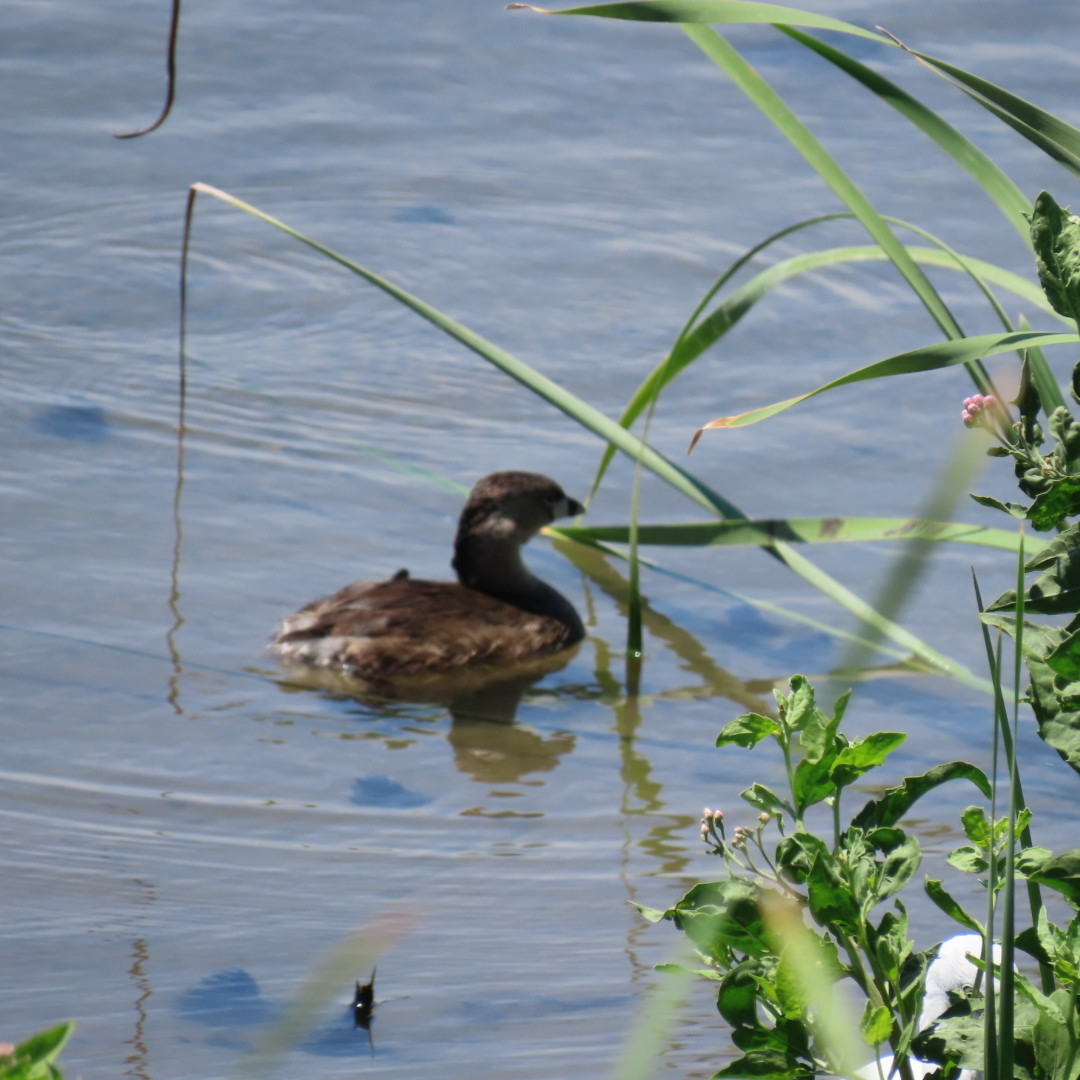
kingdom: Animalia
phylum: Chordata
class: Aves
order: Podicipediformes
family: Podicipedidae
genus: Podilymbus
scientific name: Podilymbus podiceps
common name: Pied-billed grebe
